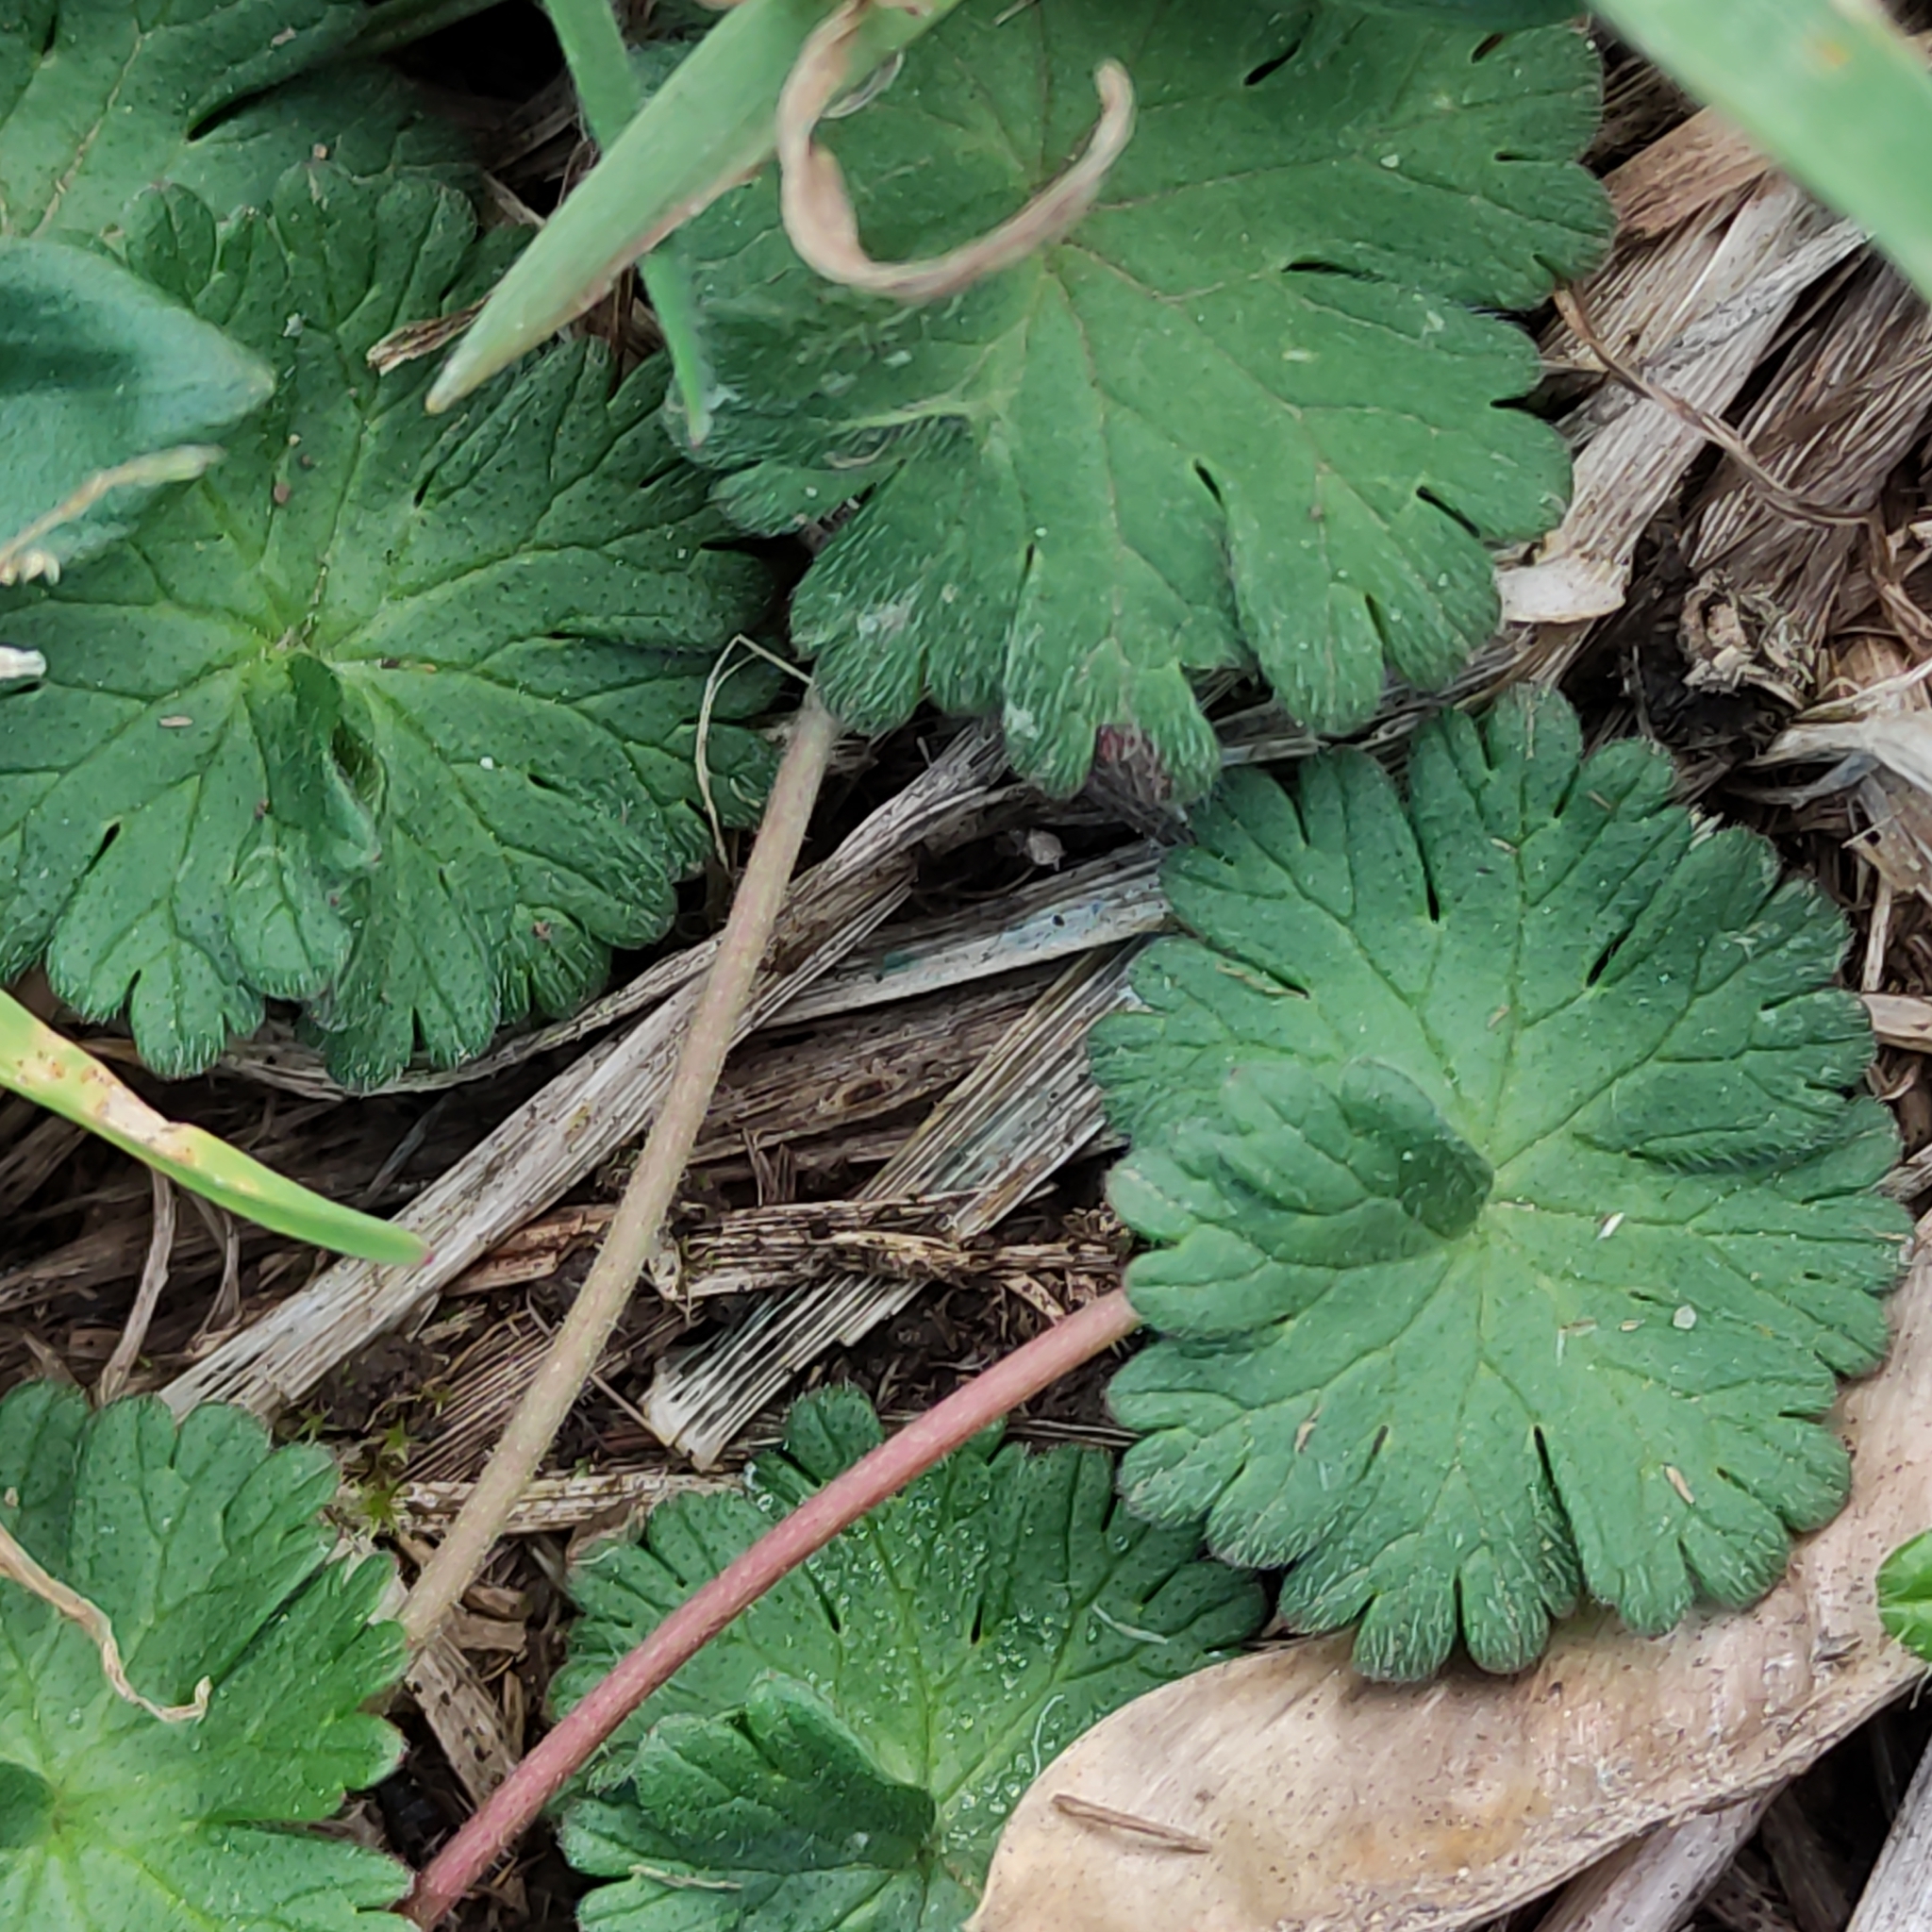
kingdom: Plantae
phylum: Tracheophyta
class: Magnoliopsida
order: Geraniales
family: Geraniaceae
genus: Geranium
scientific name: Geranium molle
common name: Dove's-foot crane's-bill
